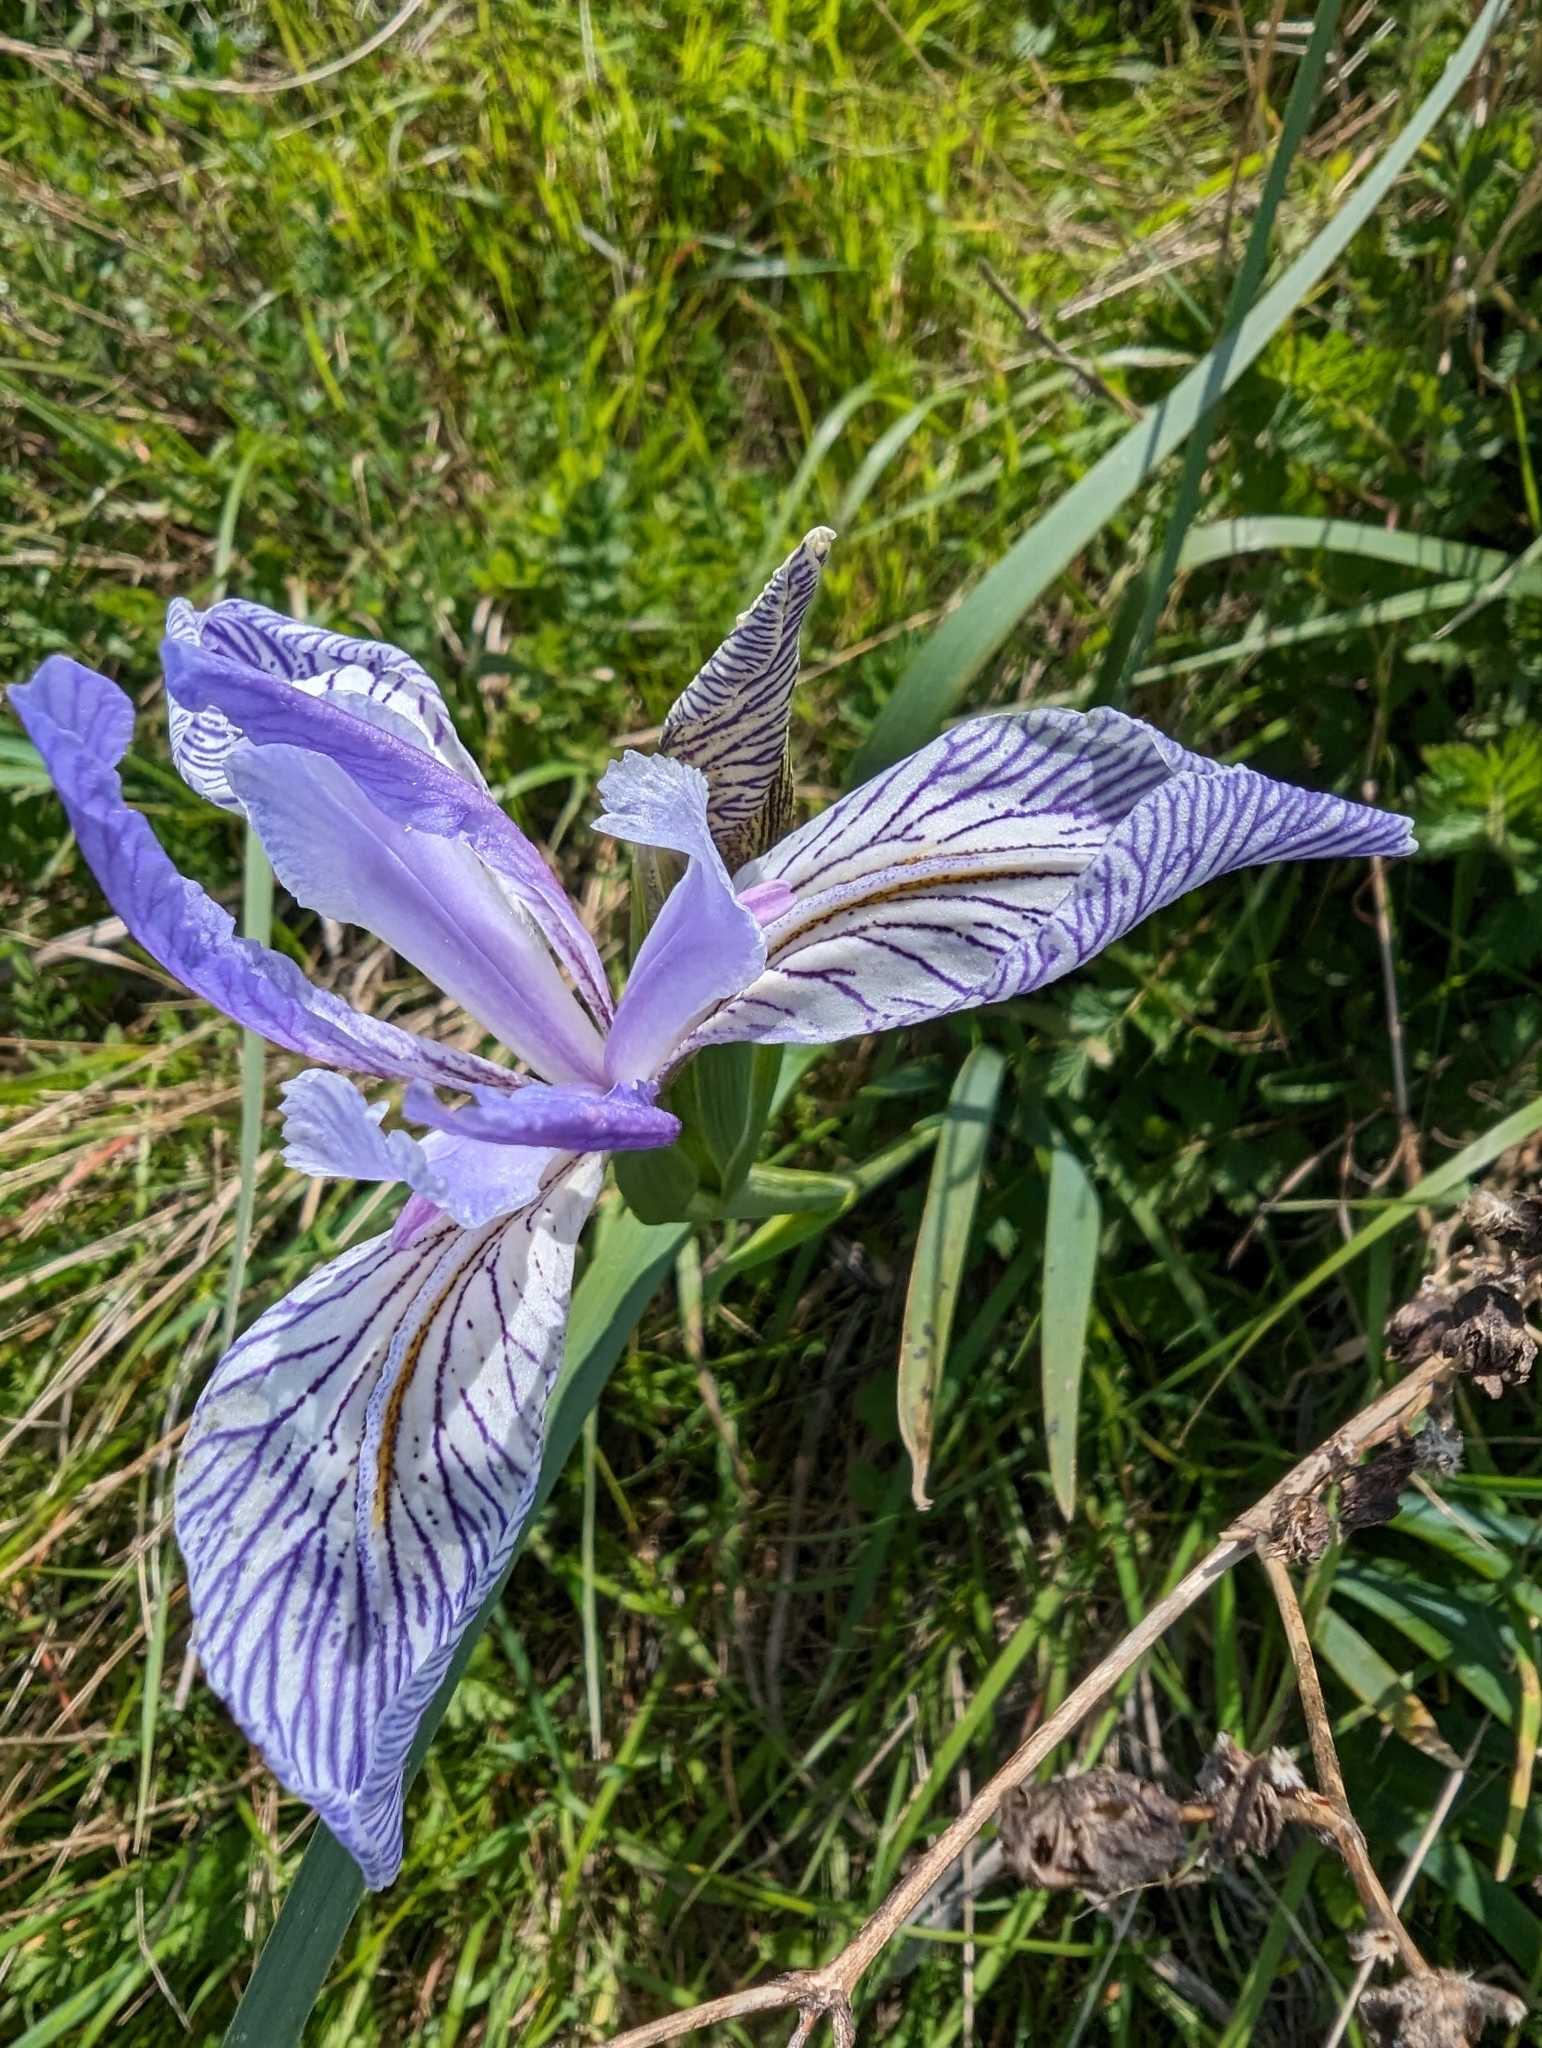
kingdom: Plantae
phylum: Tracheophyta
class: Liliopsida
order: Asparagales
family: Iridaceae
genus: Iris
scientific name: Iris longipetala
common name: Long-petal iris
